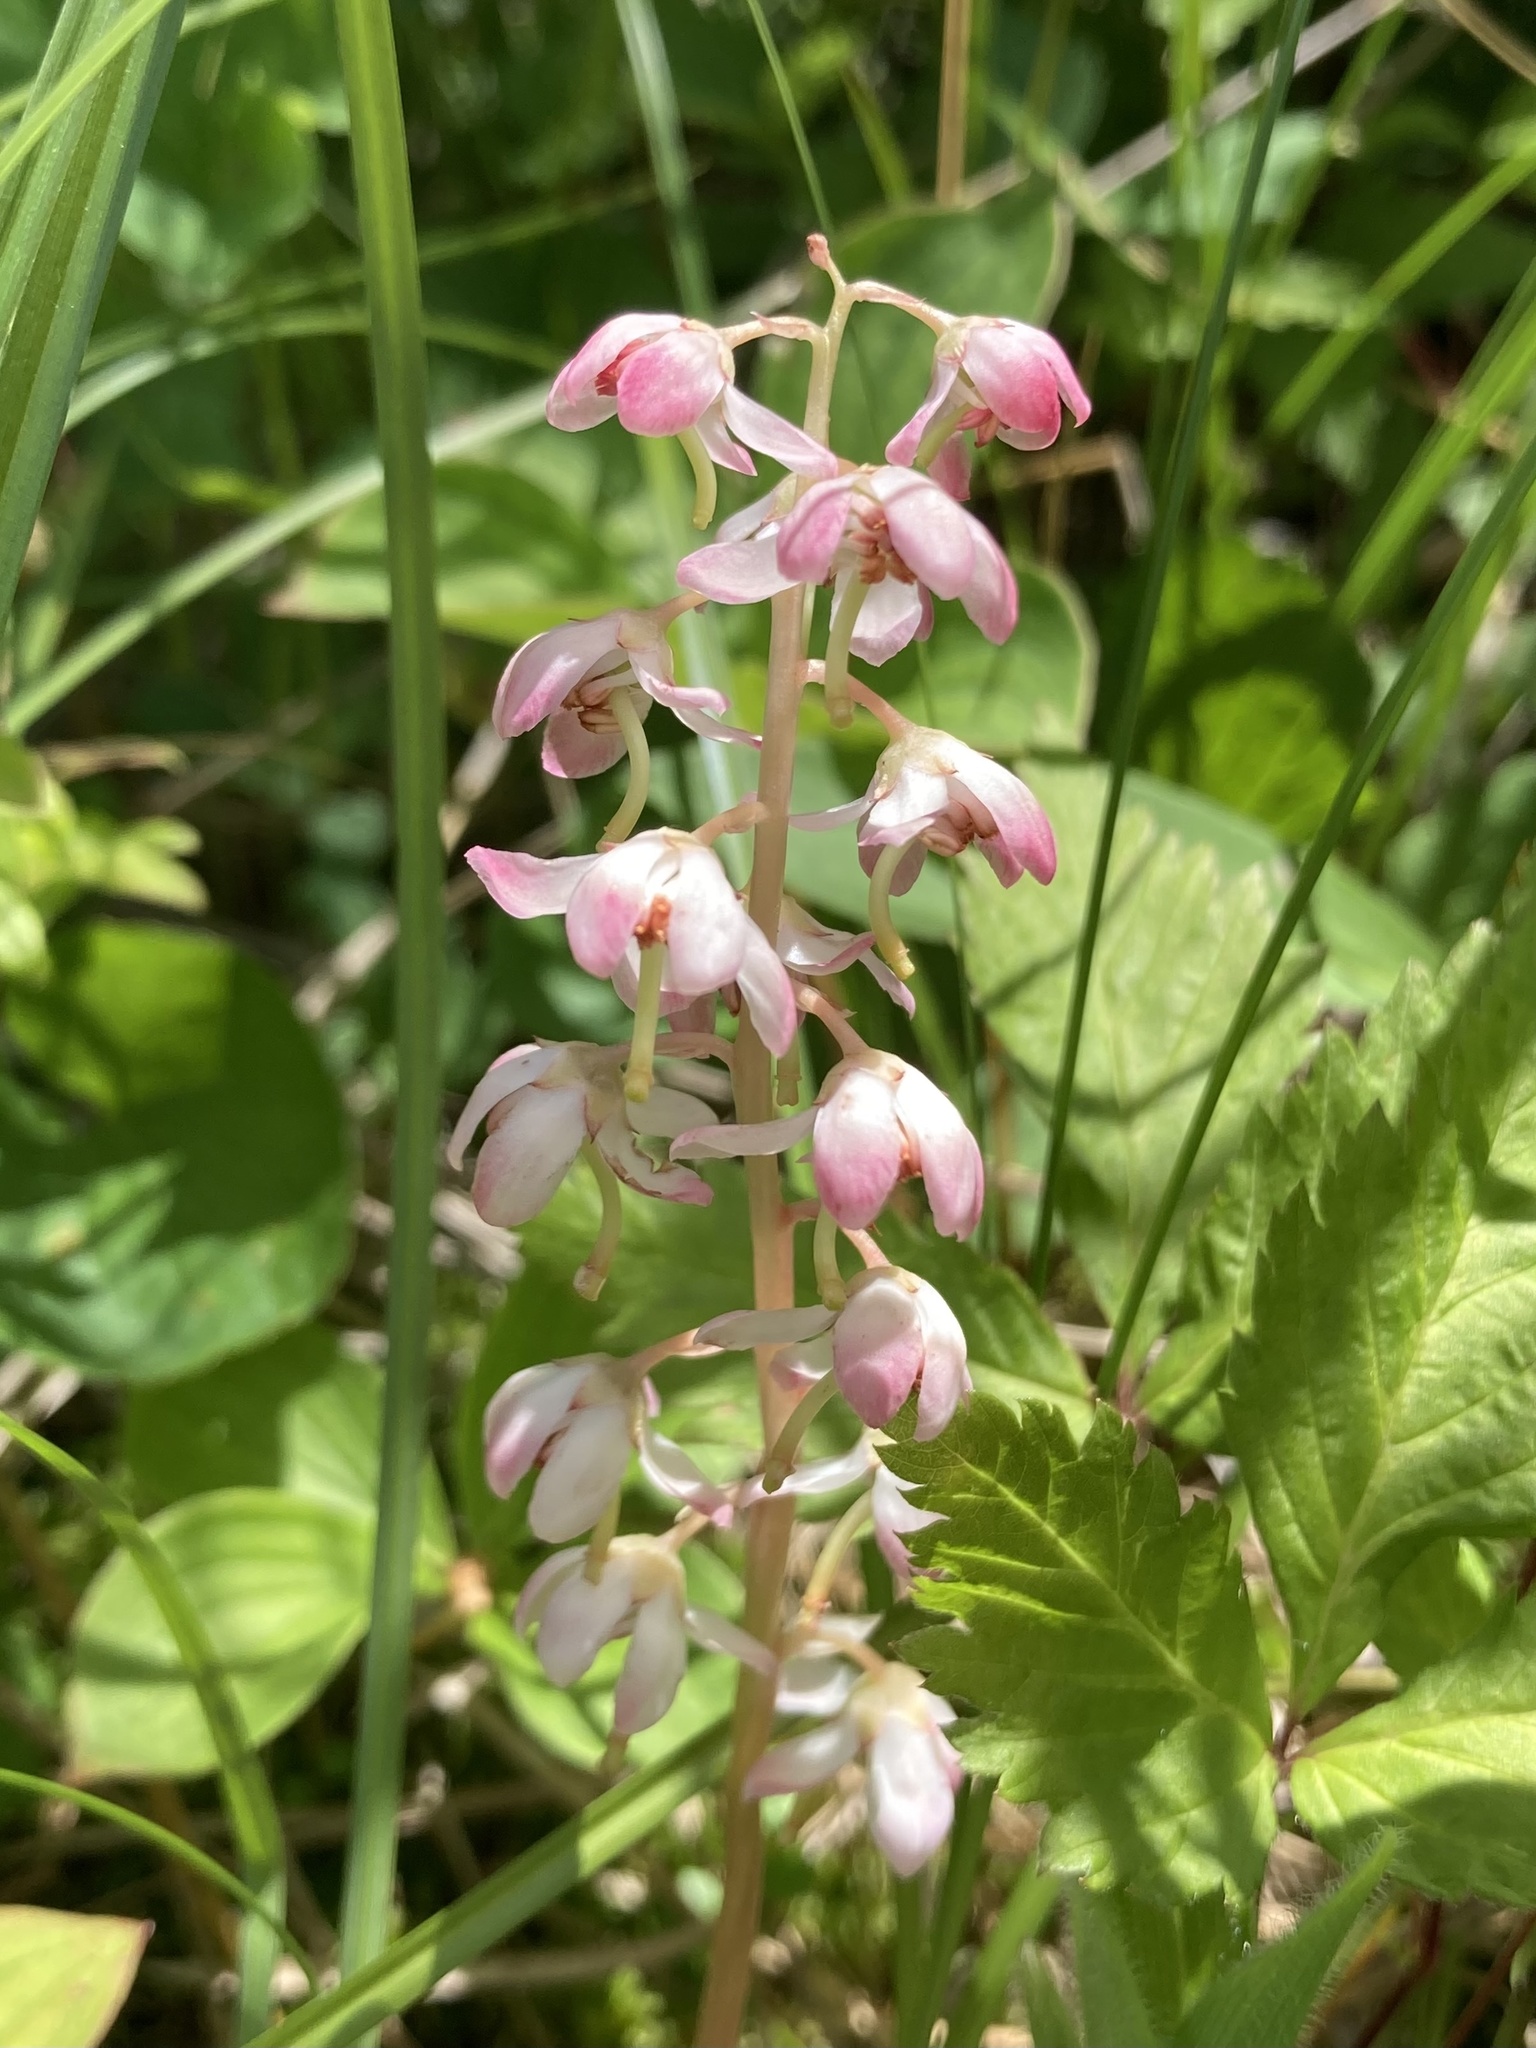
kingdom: Plantae
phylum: Tracheophyta
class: Magnoliopsida
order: Ericales
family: Ericaceae
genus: Pyrola
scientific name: Pyrola asarifolia
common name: Bog wintergreen
